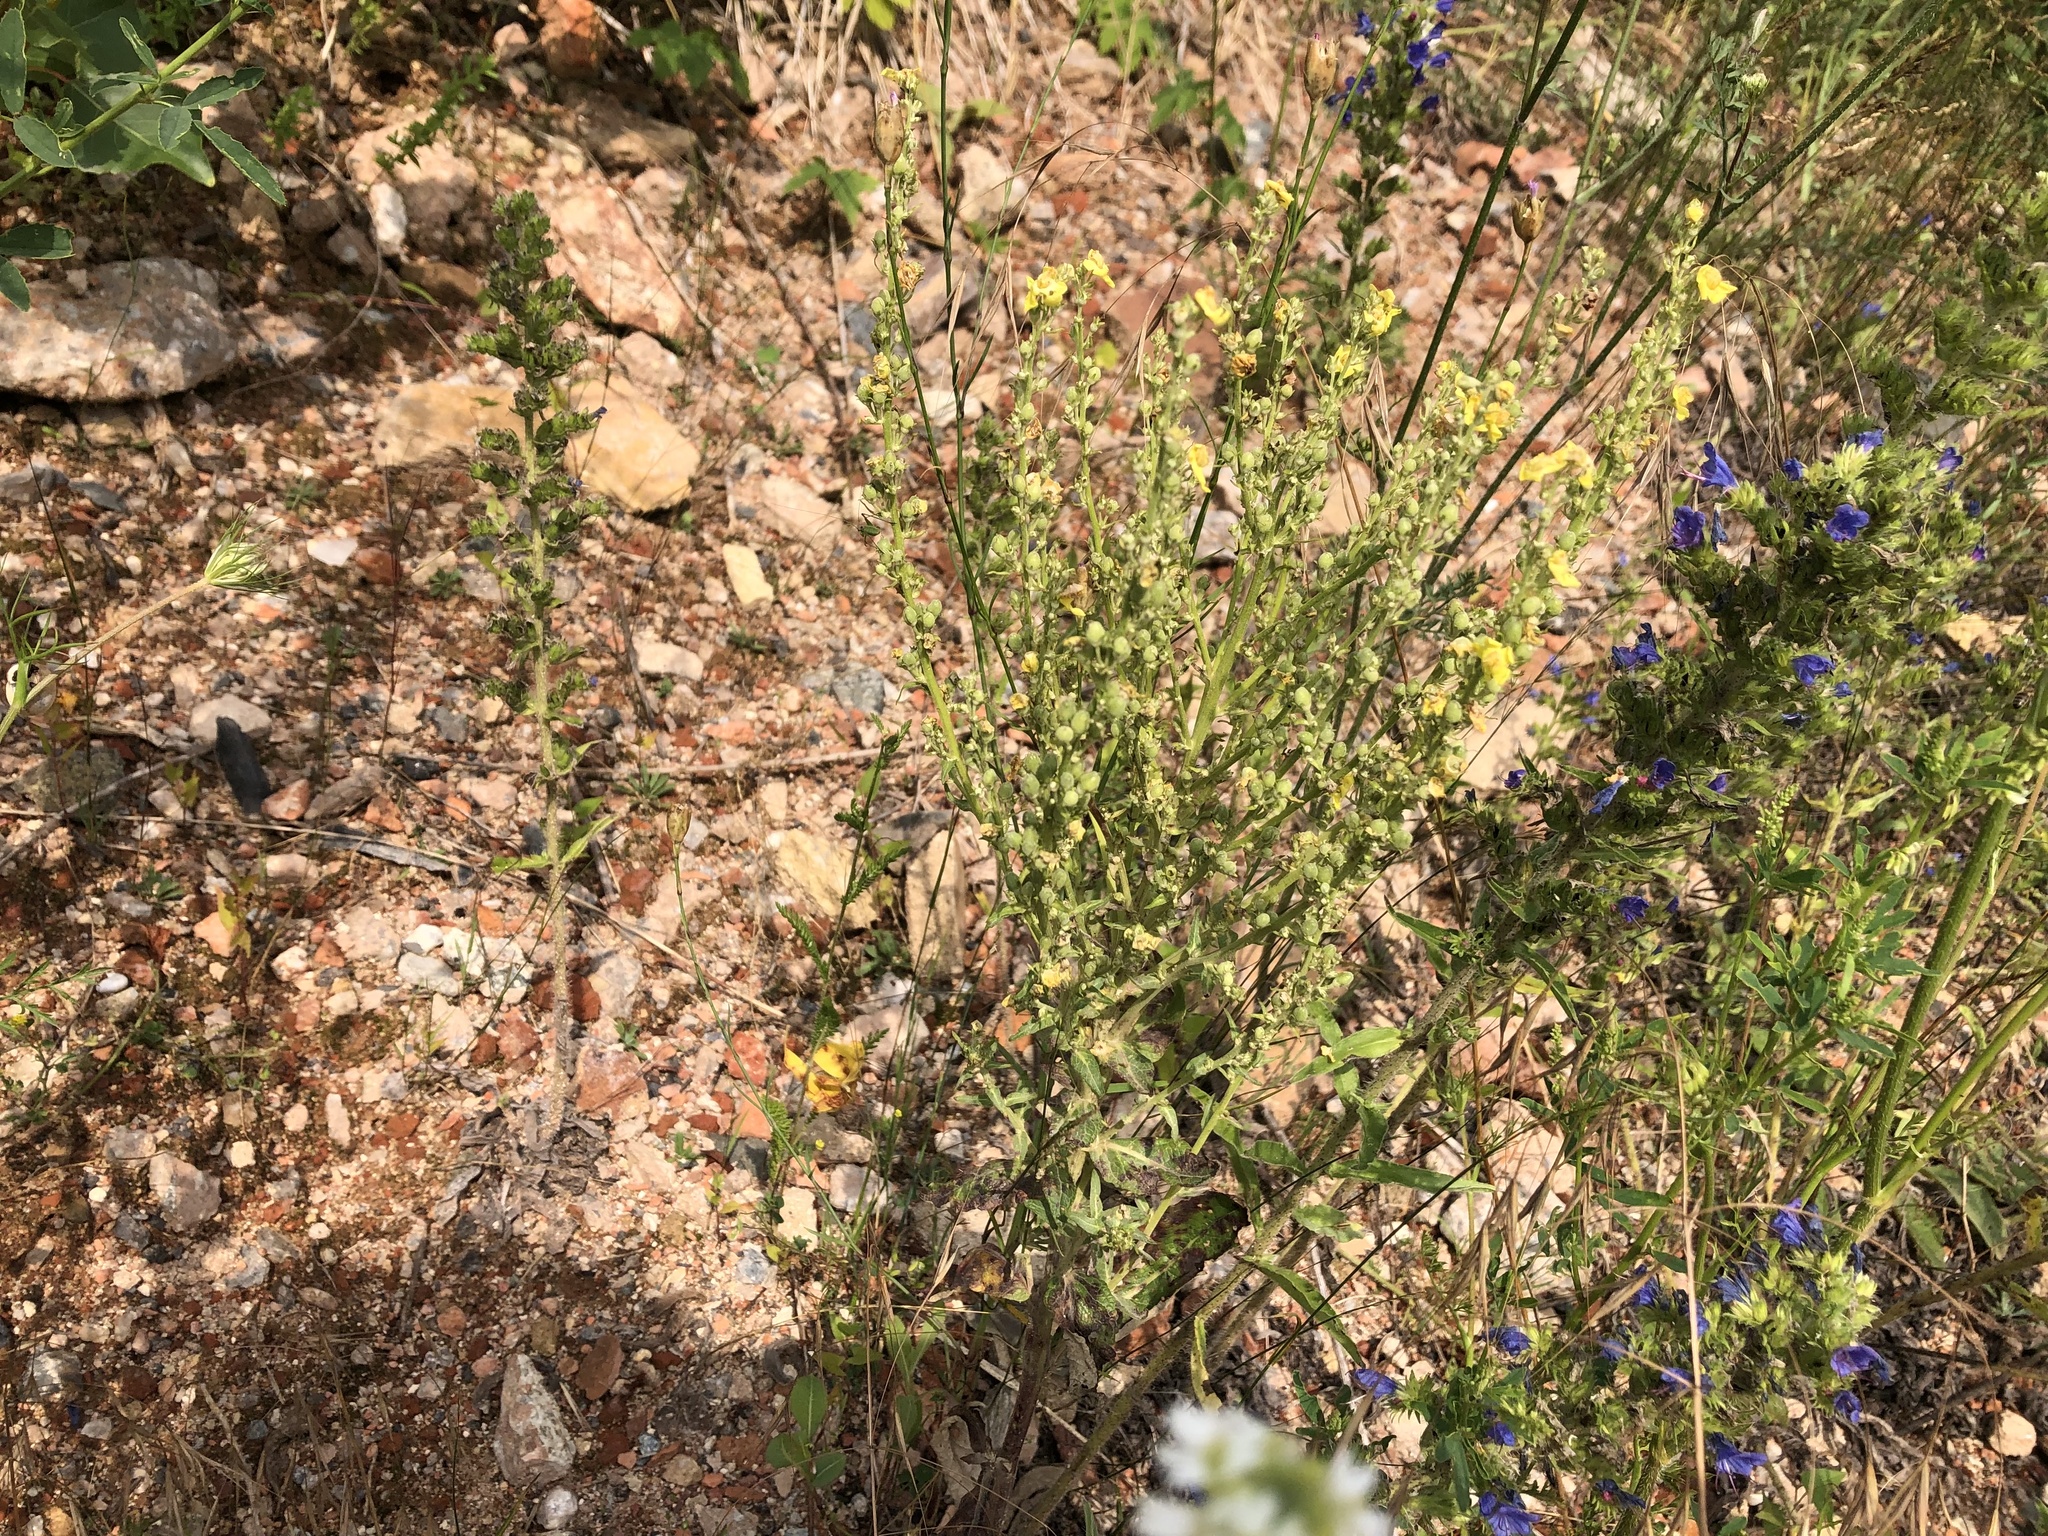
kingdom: Plantae
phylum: Tracheophyta
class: Magnoliopsida
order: Lamiales
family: Scrophulariaceae
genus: Verbascum
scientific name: Verbascum lychnitis
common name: White mullein
